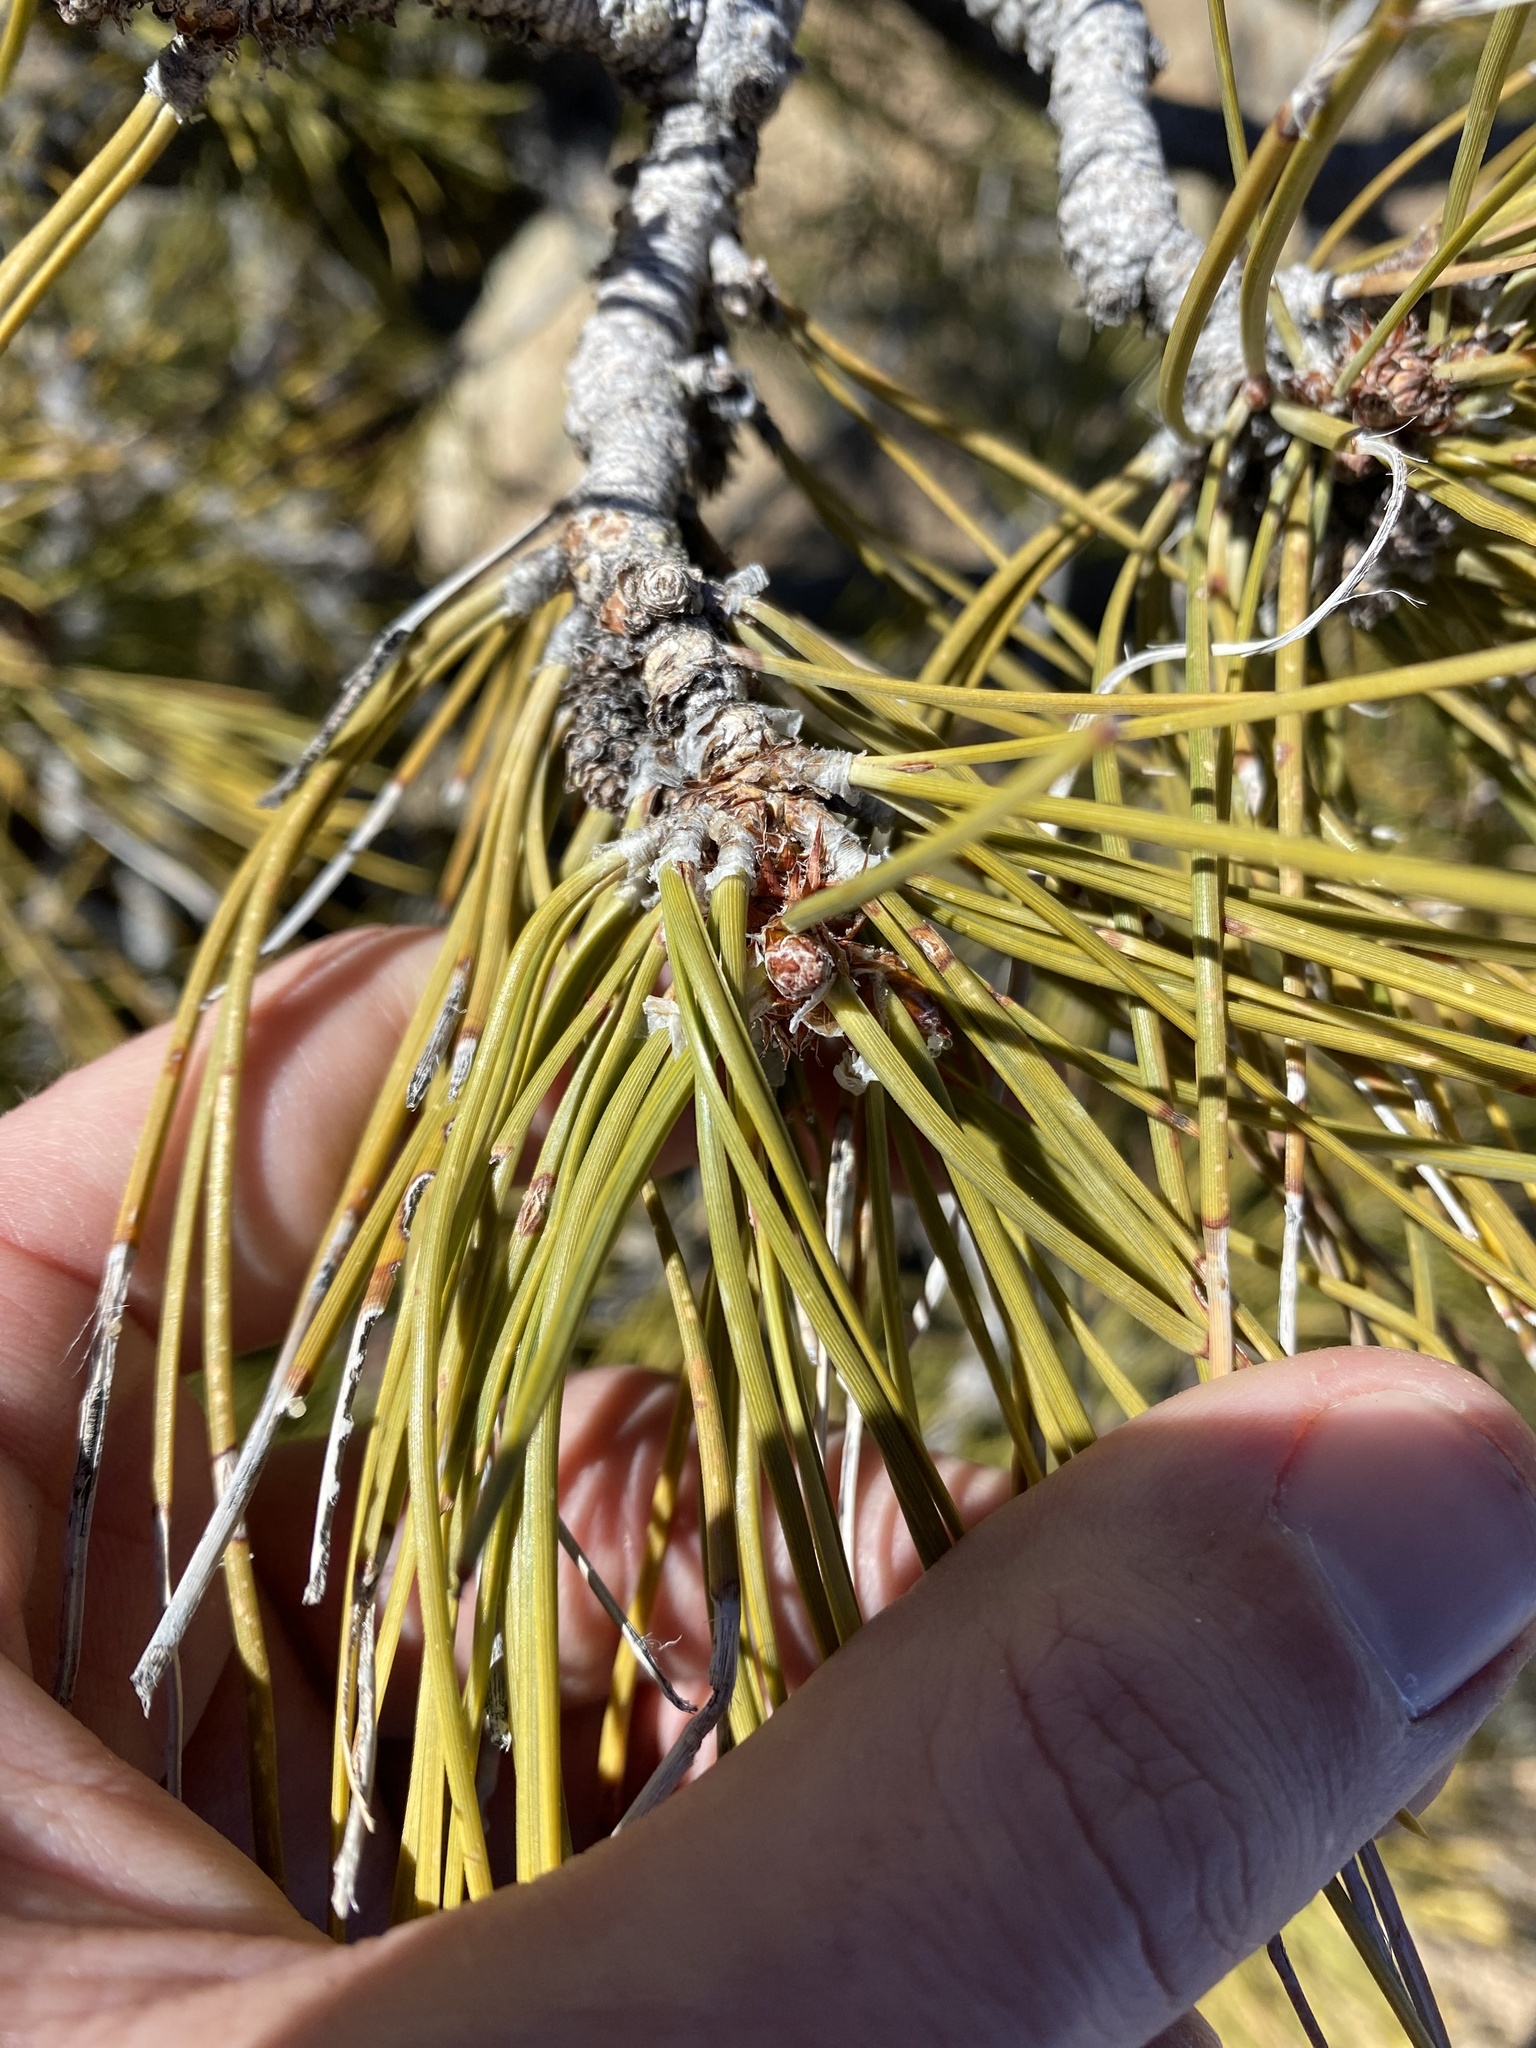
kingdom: Plantae
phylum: Tracheophyta
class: Pinopsida
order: Pinales
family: Pinaceae
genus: Pinus
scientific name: Pinus ponderosa
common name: Western yellow-pine
